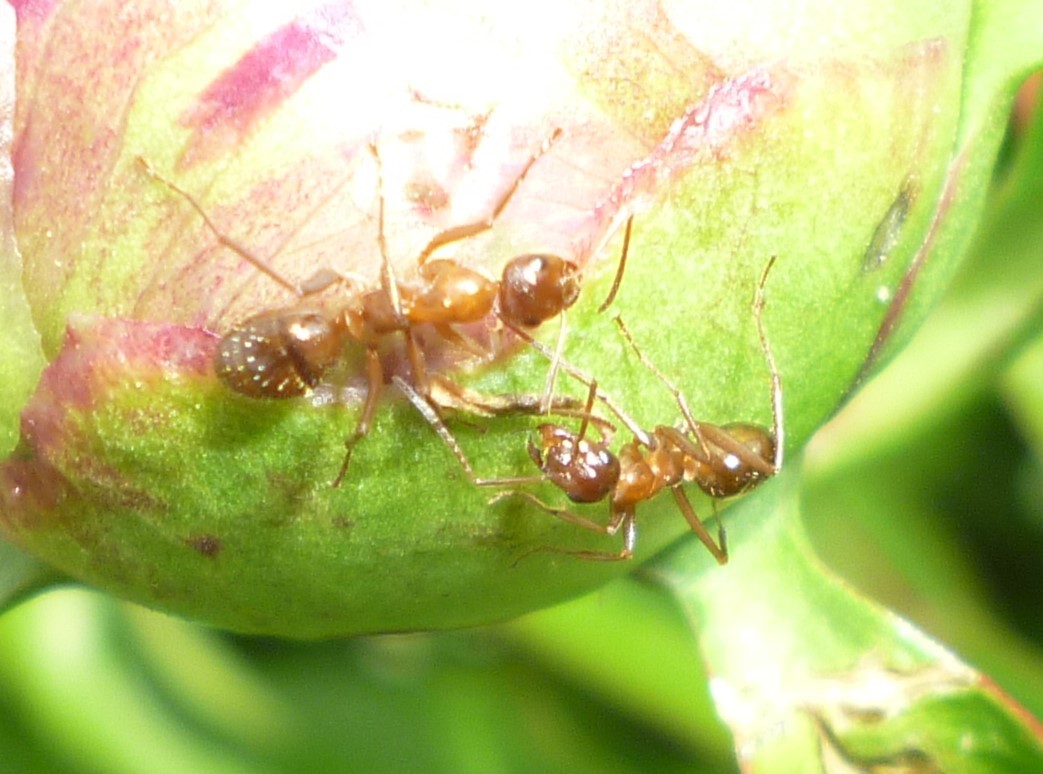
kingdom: Animalia
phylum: Arthropoda
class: Insecta
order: Hymenoptera
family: Formicidae
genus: Formica
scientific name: Formica pallidefulva
